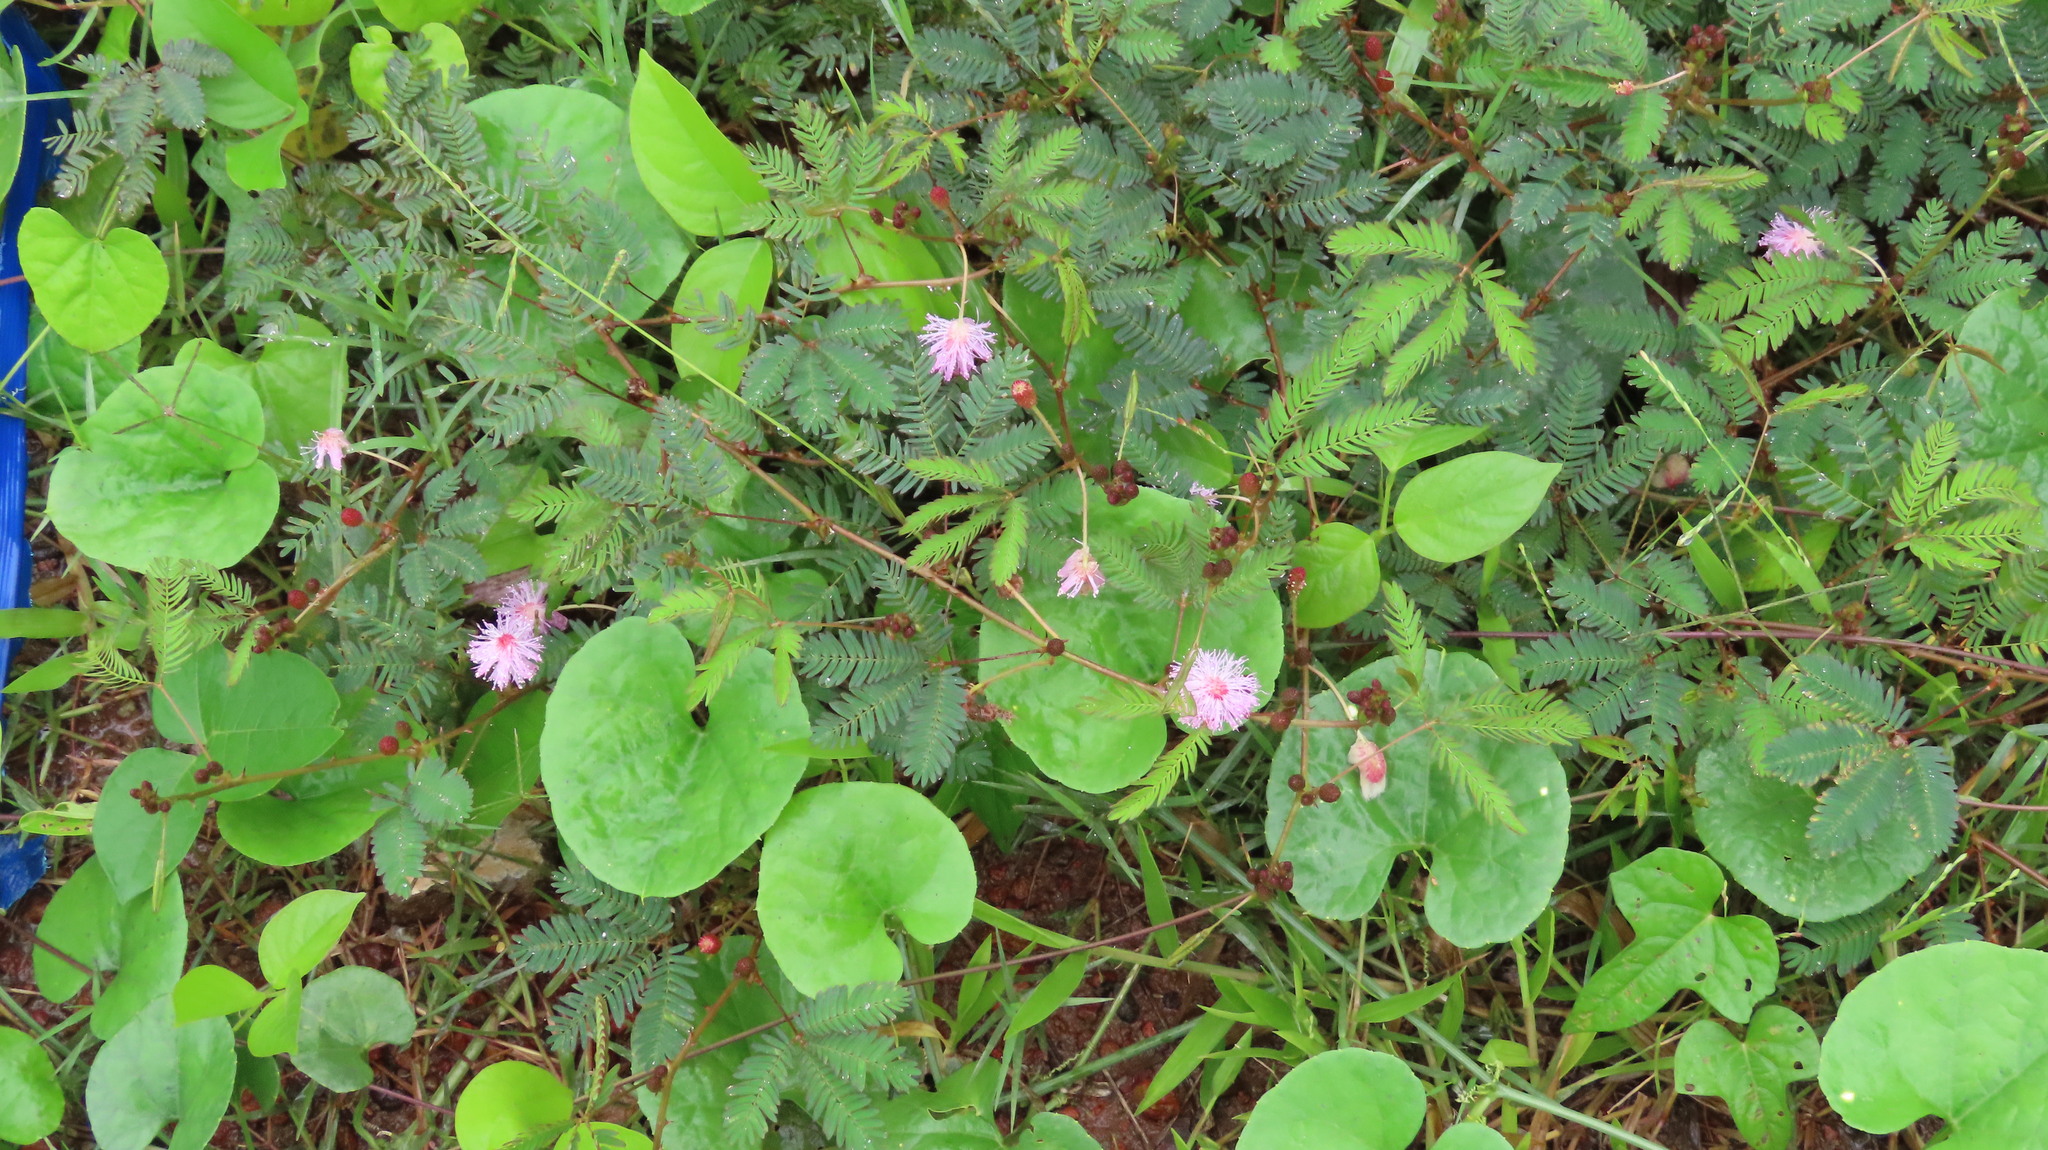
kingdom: Plantae
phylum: Tracheophyta
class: Magnoliopsida
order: Fabales
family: Fabaceae
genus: Mimosa
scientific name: Mimosa pudica
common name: Sensitive plant
